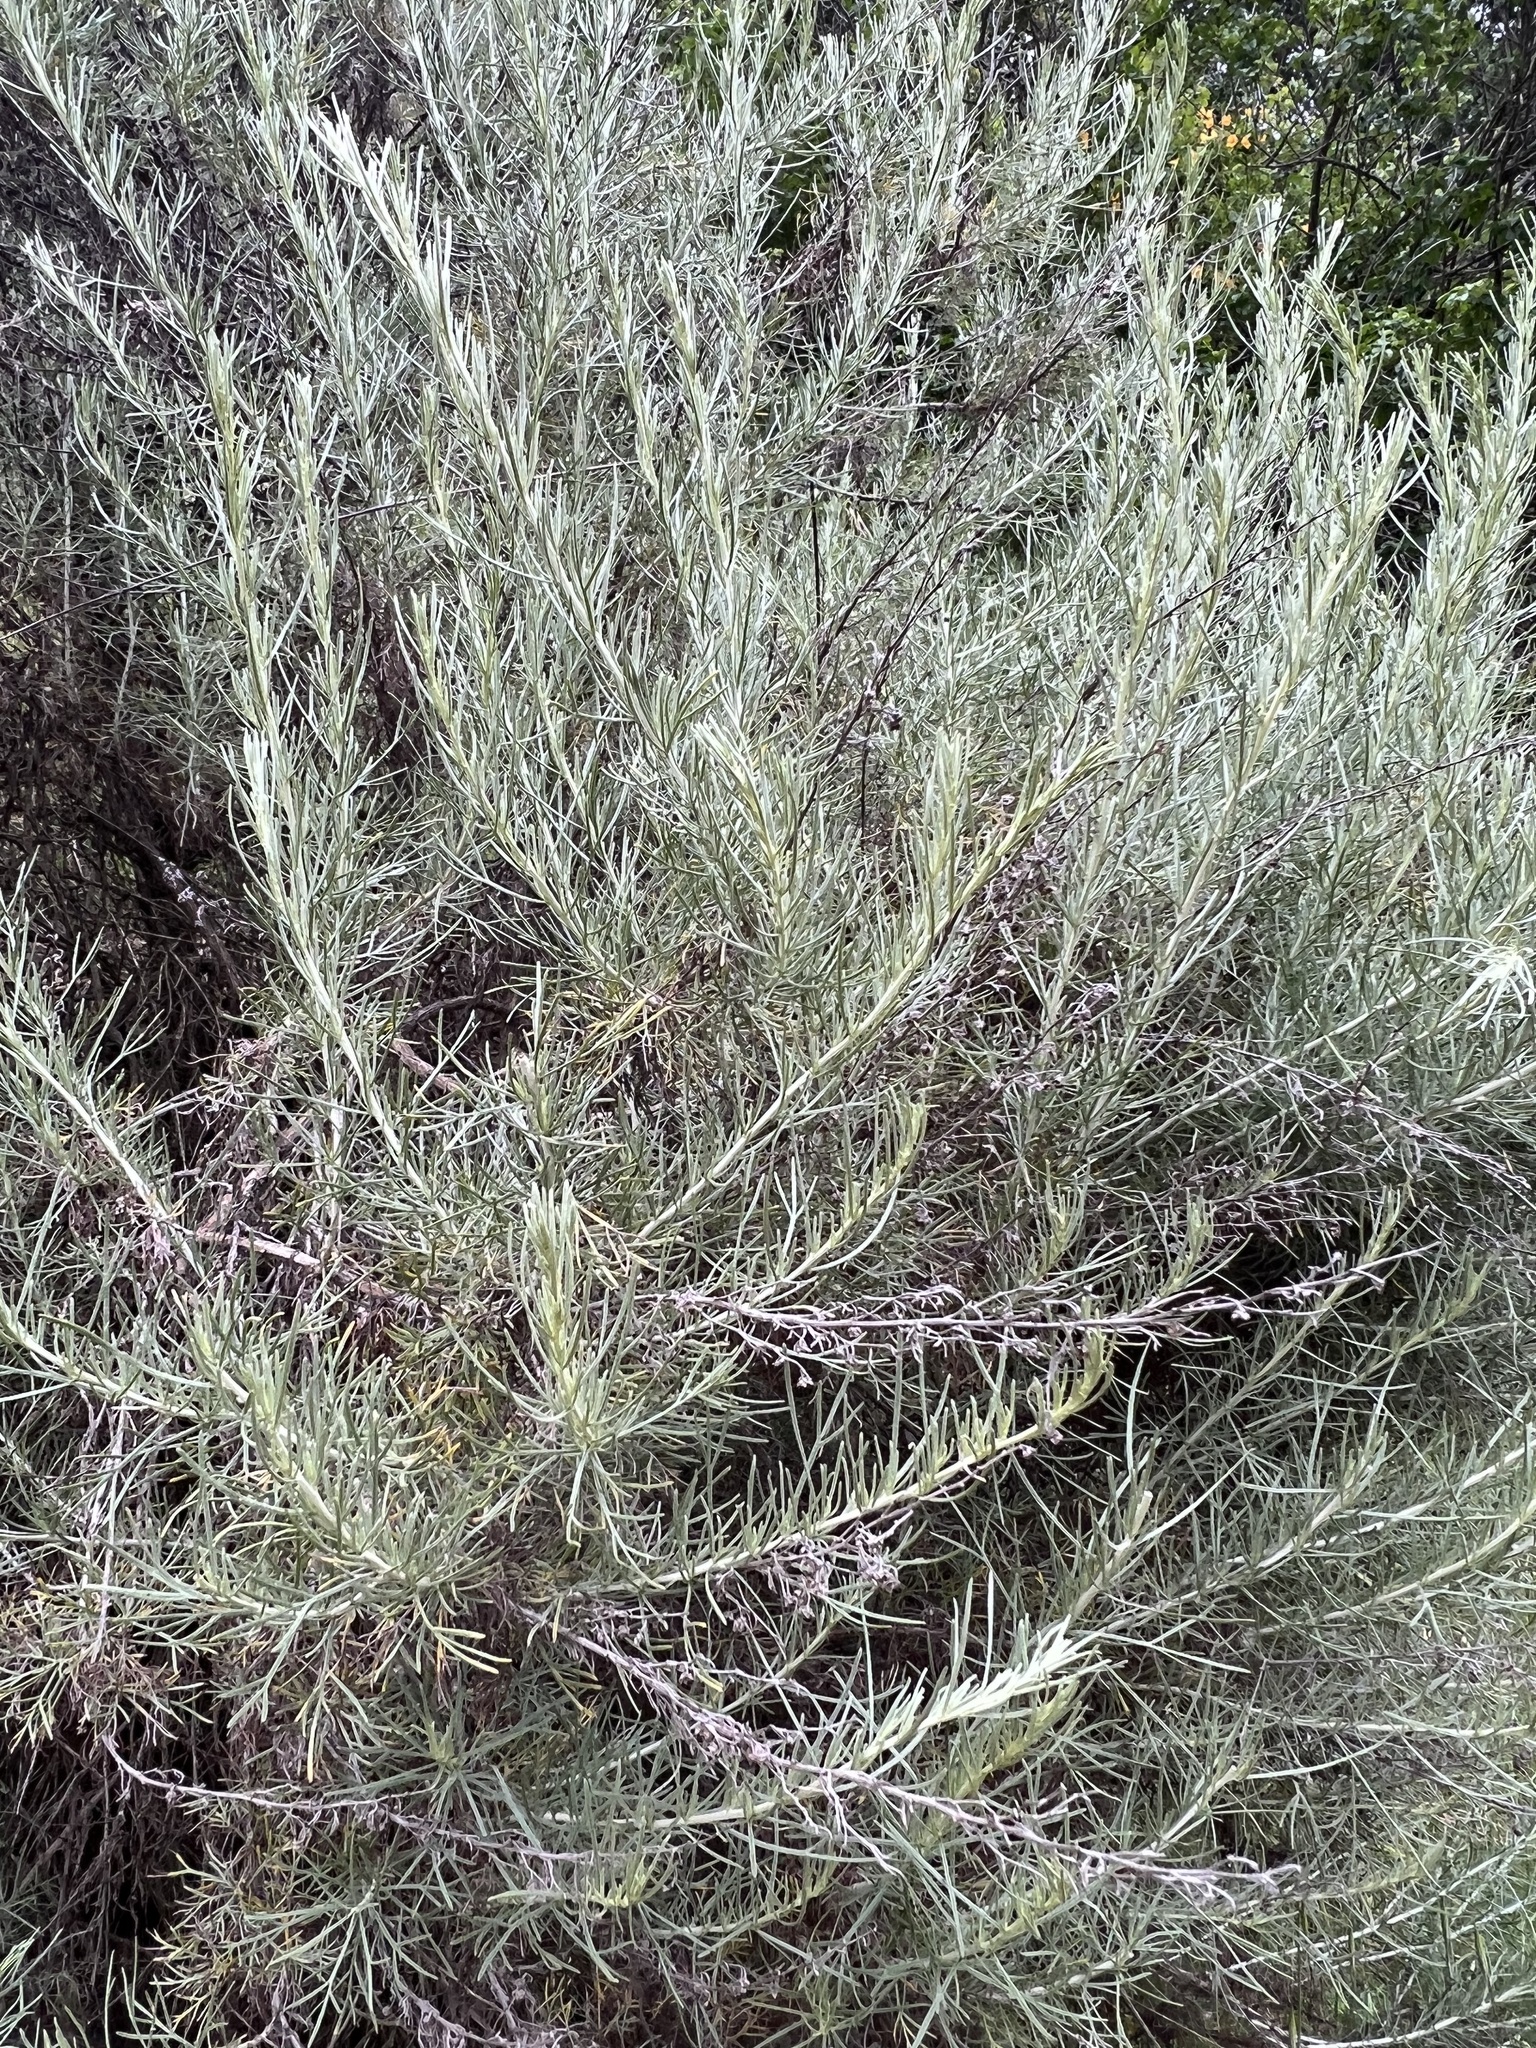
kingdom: Plantae
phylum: Tracheophyta
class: Magnoliopsida
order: Asterales
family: Asteraceae
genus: Artemisia
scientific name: Artemisia californica
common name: California sagebrush
